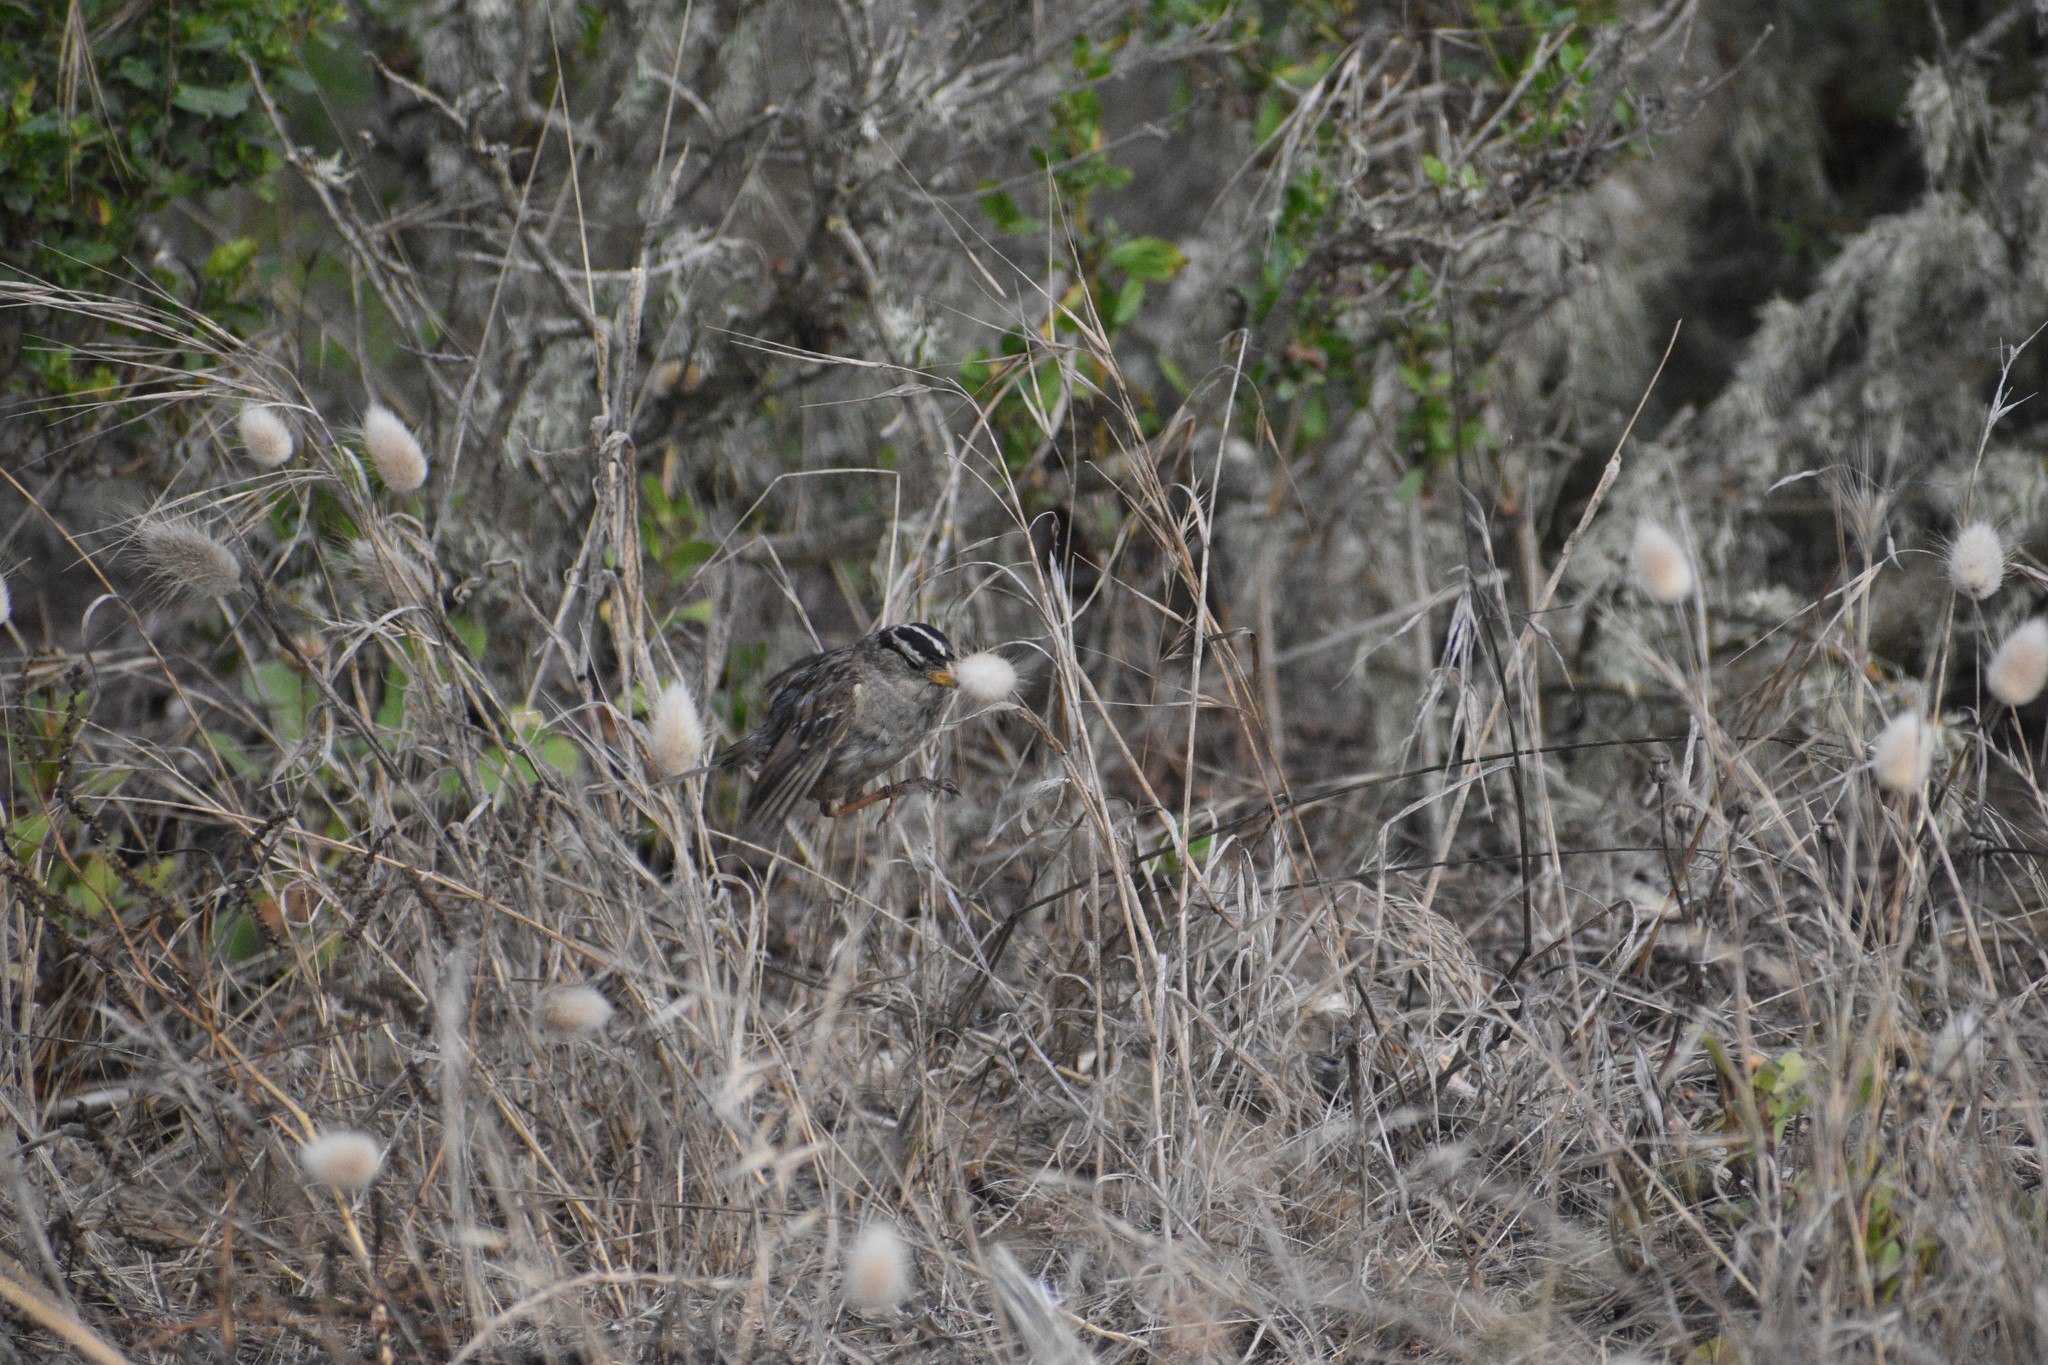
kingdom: Animalia
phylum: Chordata
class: Aves
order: Passeriformes
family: Passerellidae
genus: Zonotrichia
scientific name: Zonotrichia leucophrys
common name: White-crowned sparrow
